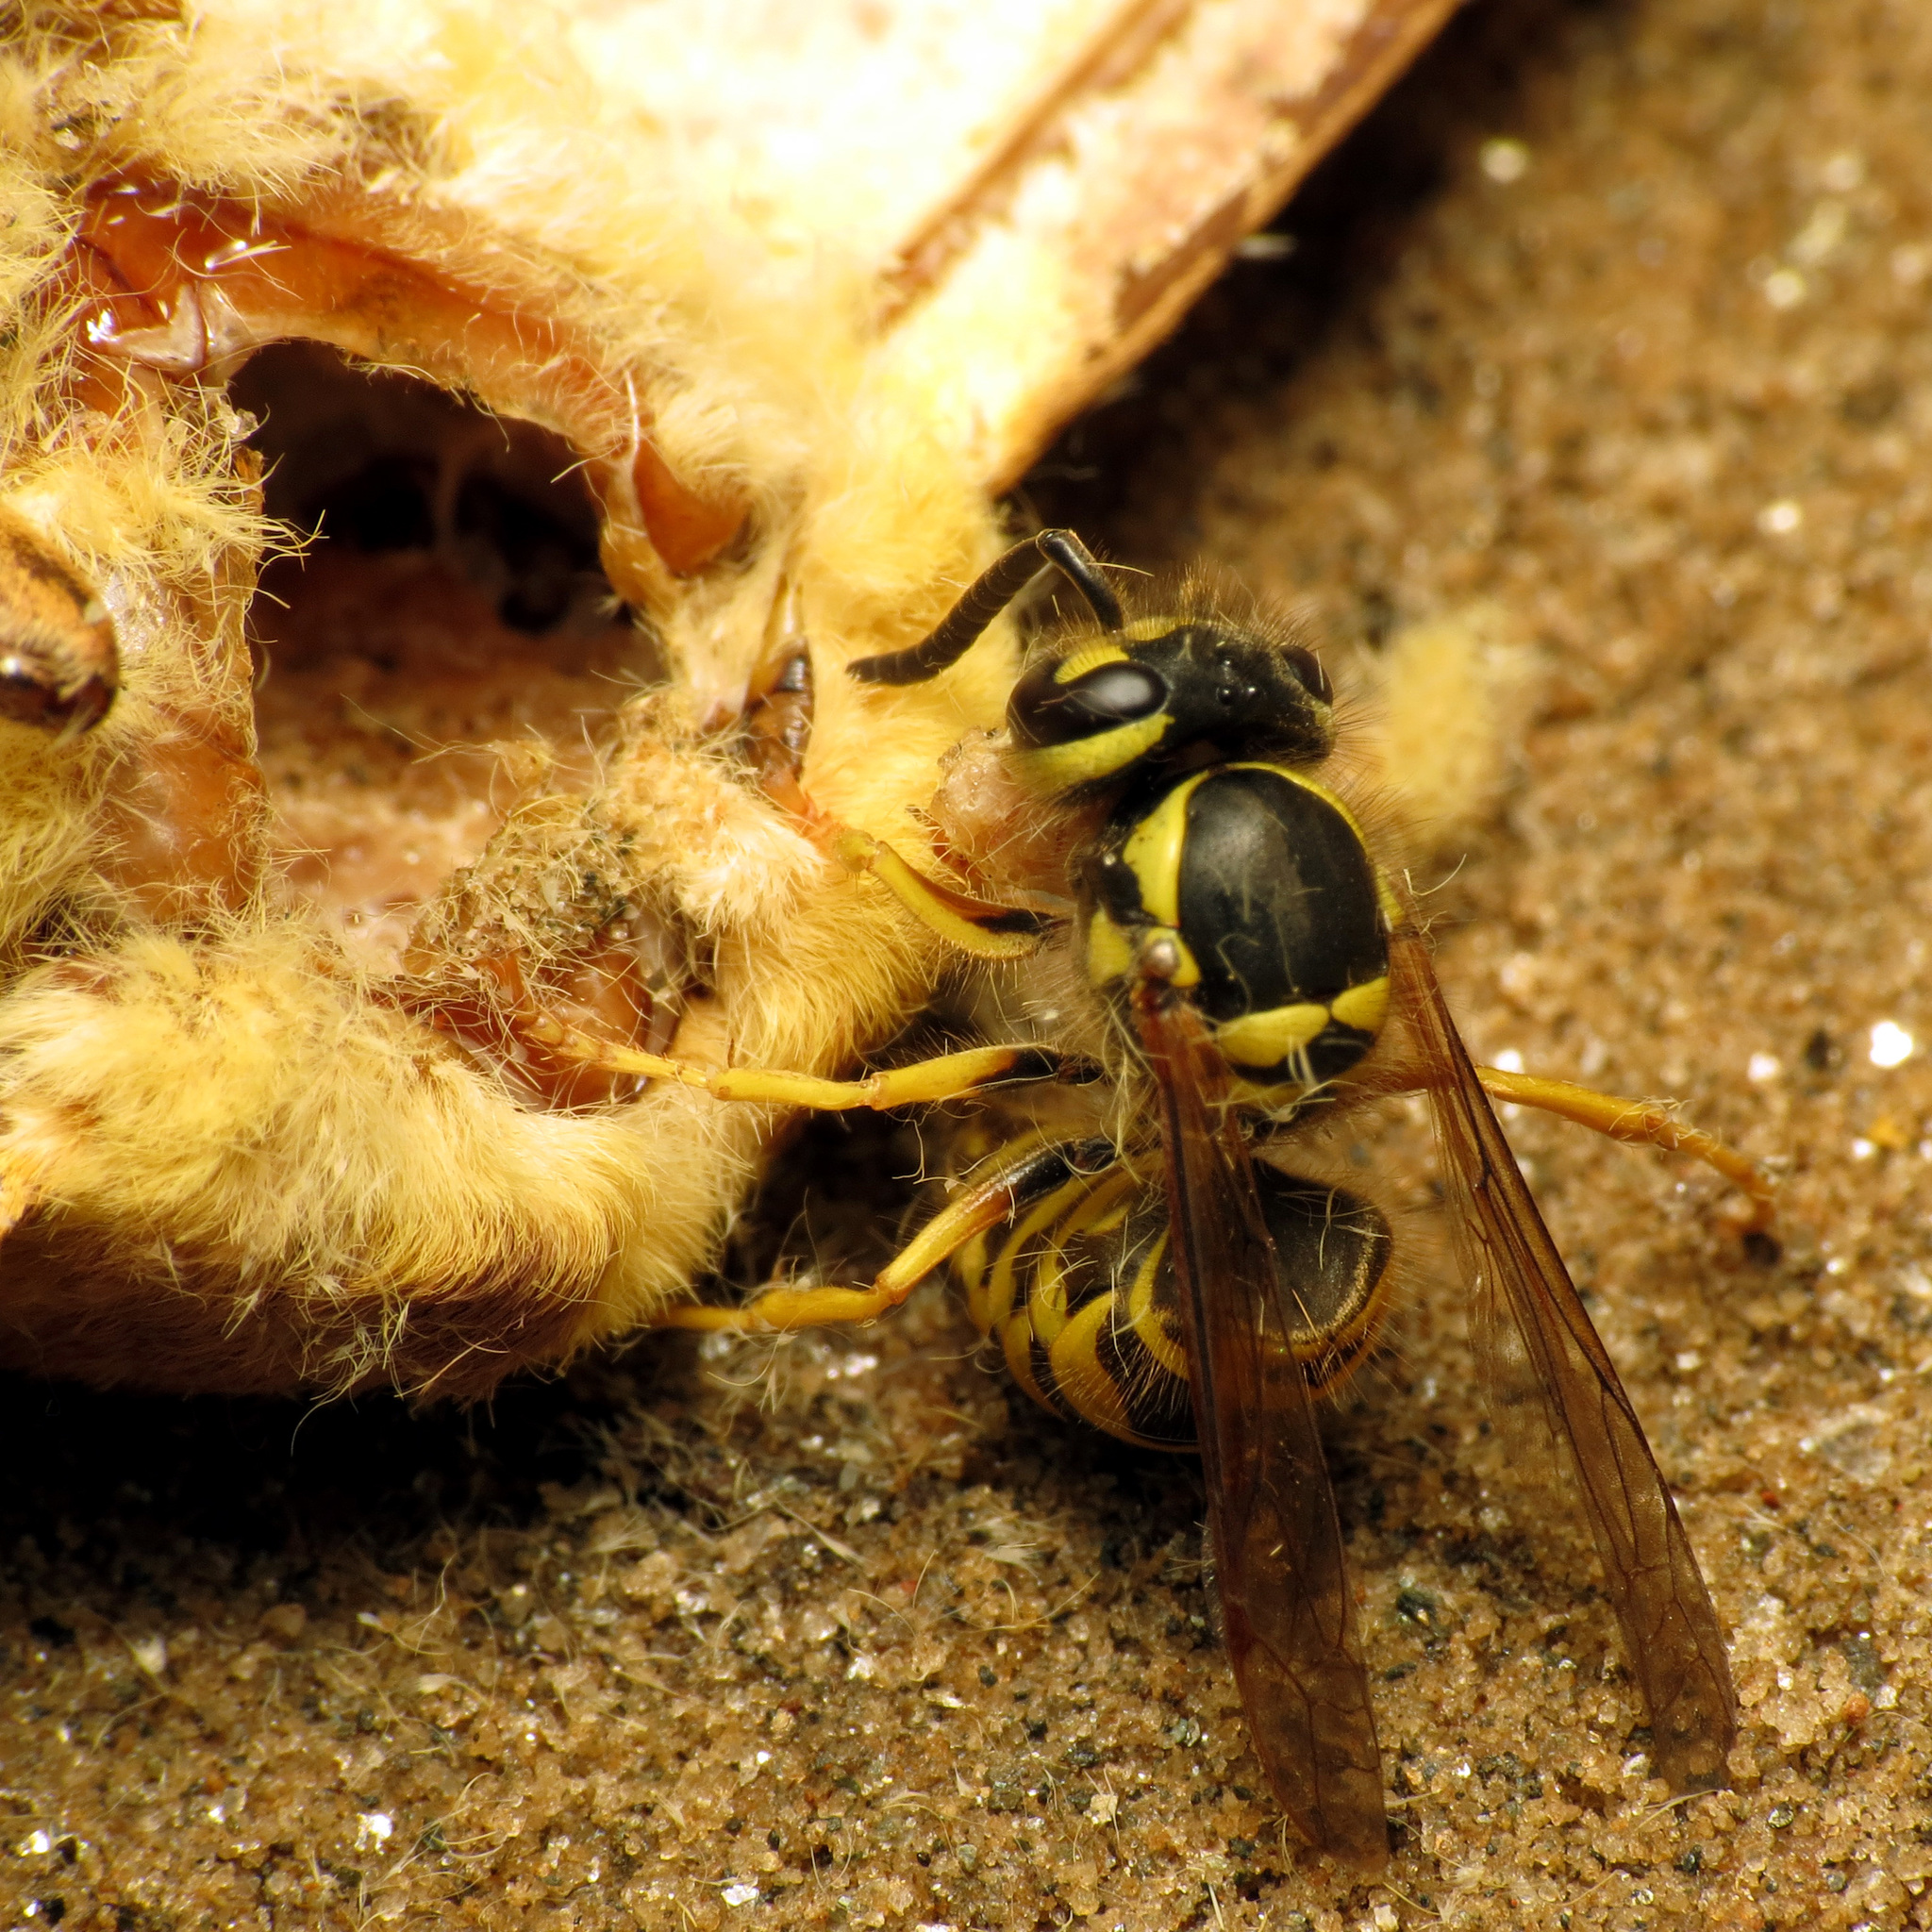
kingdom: Animalia
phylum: Arthropoda
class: Insecta
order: Hymenoptera
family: Vespidae
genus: Vespula
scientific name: Vespula maculifrons
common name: Eastern yellowjacket
